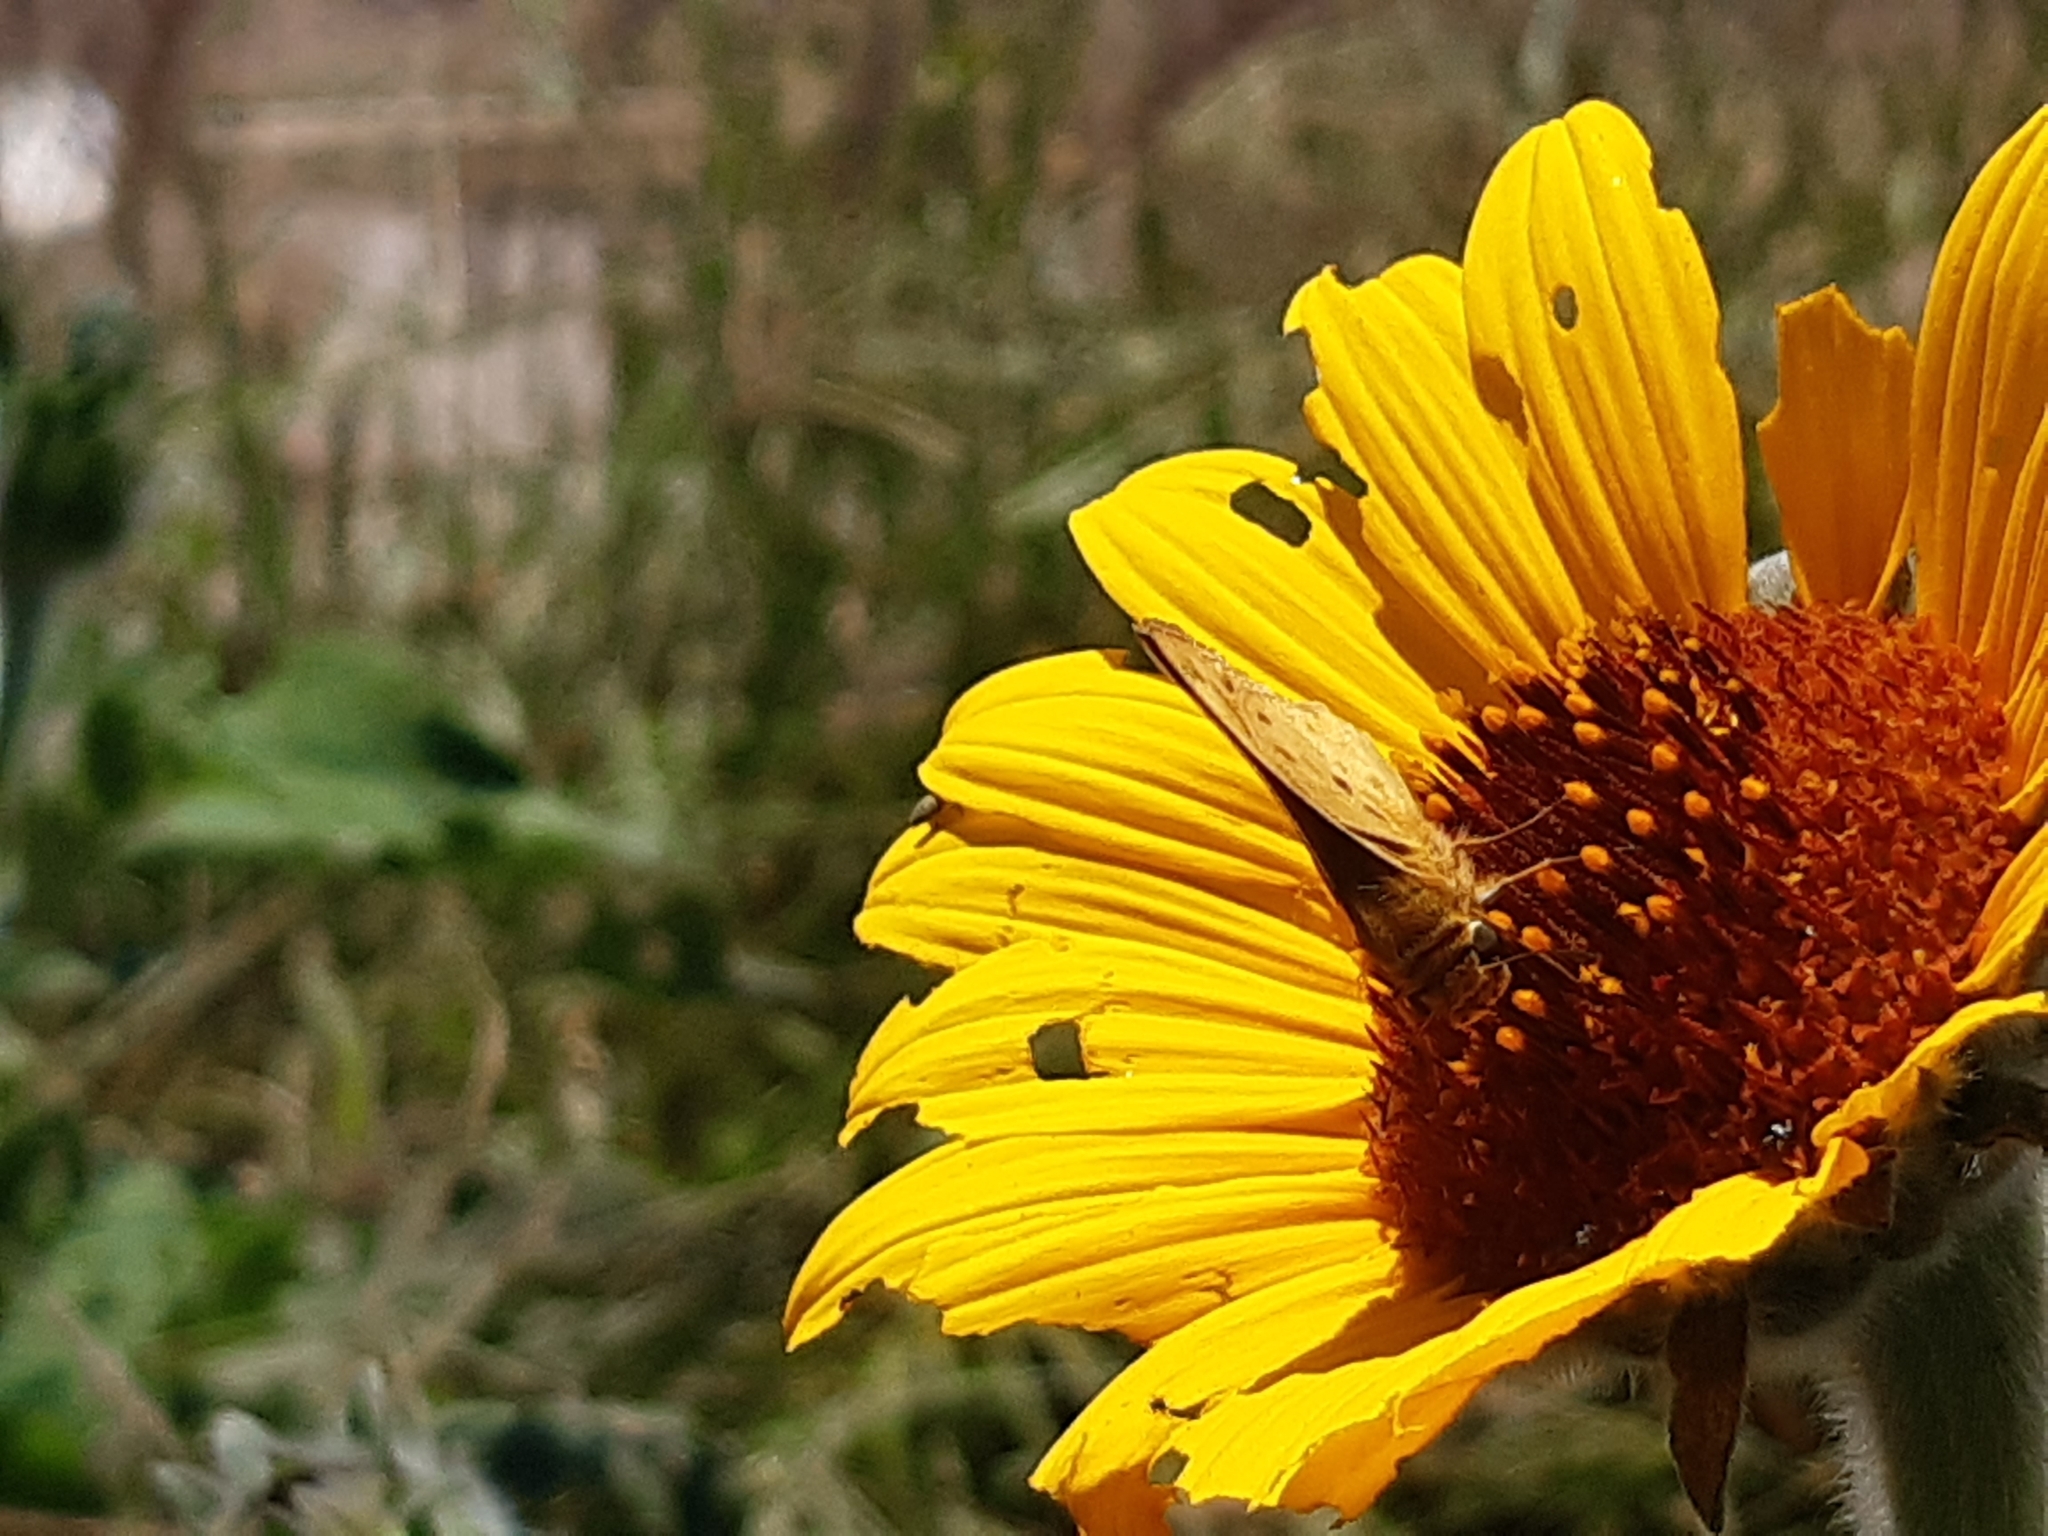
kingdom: Animalia
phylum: Arthropoda
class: Insecta
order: Lepidoptera
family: Hesperiidae
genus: Hylephila
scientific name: Hylephila phyleus
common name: Fiery skipper
